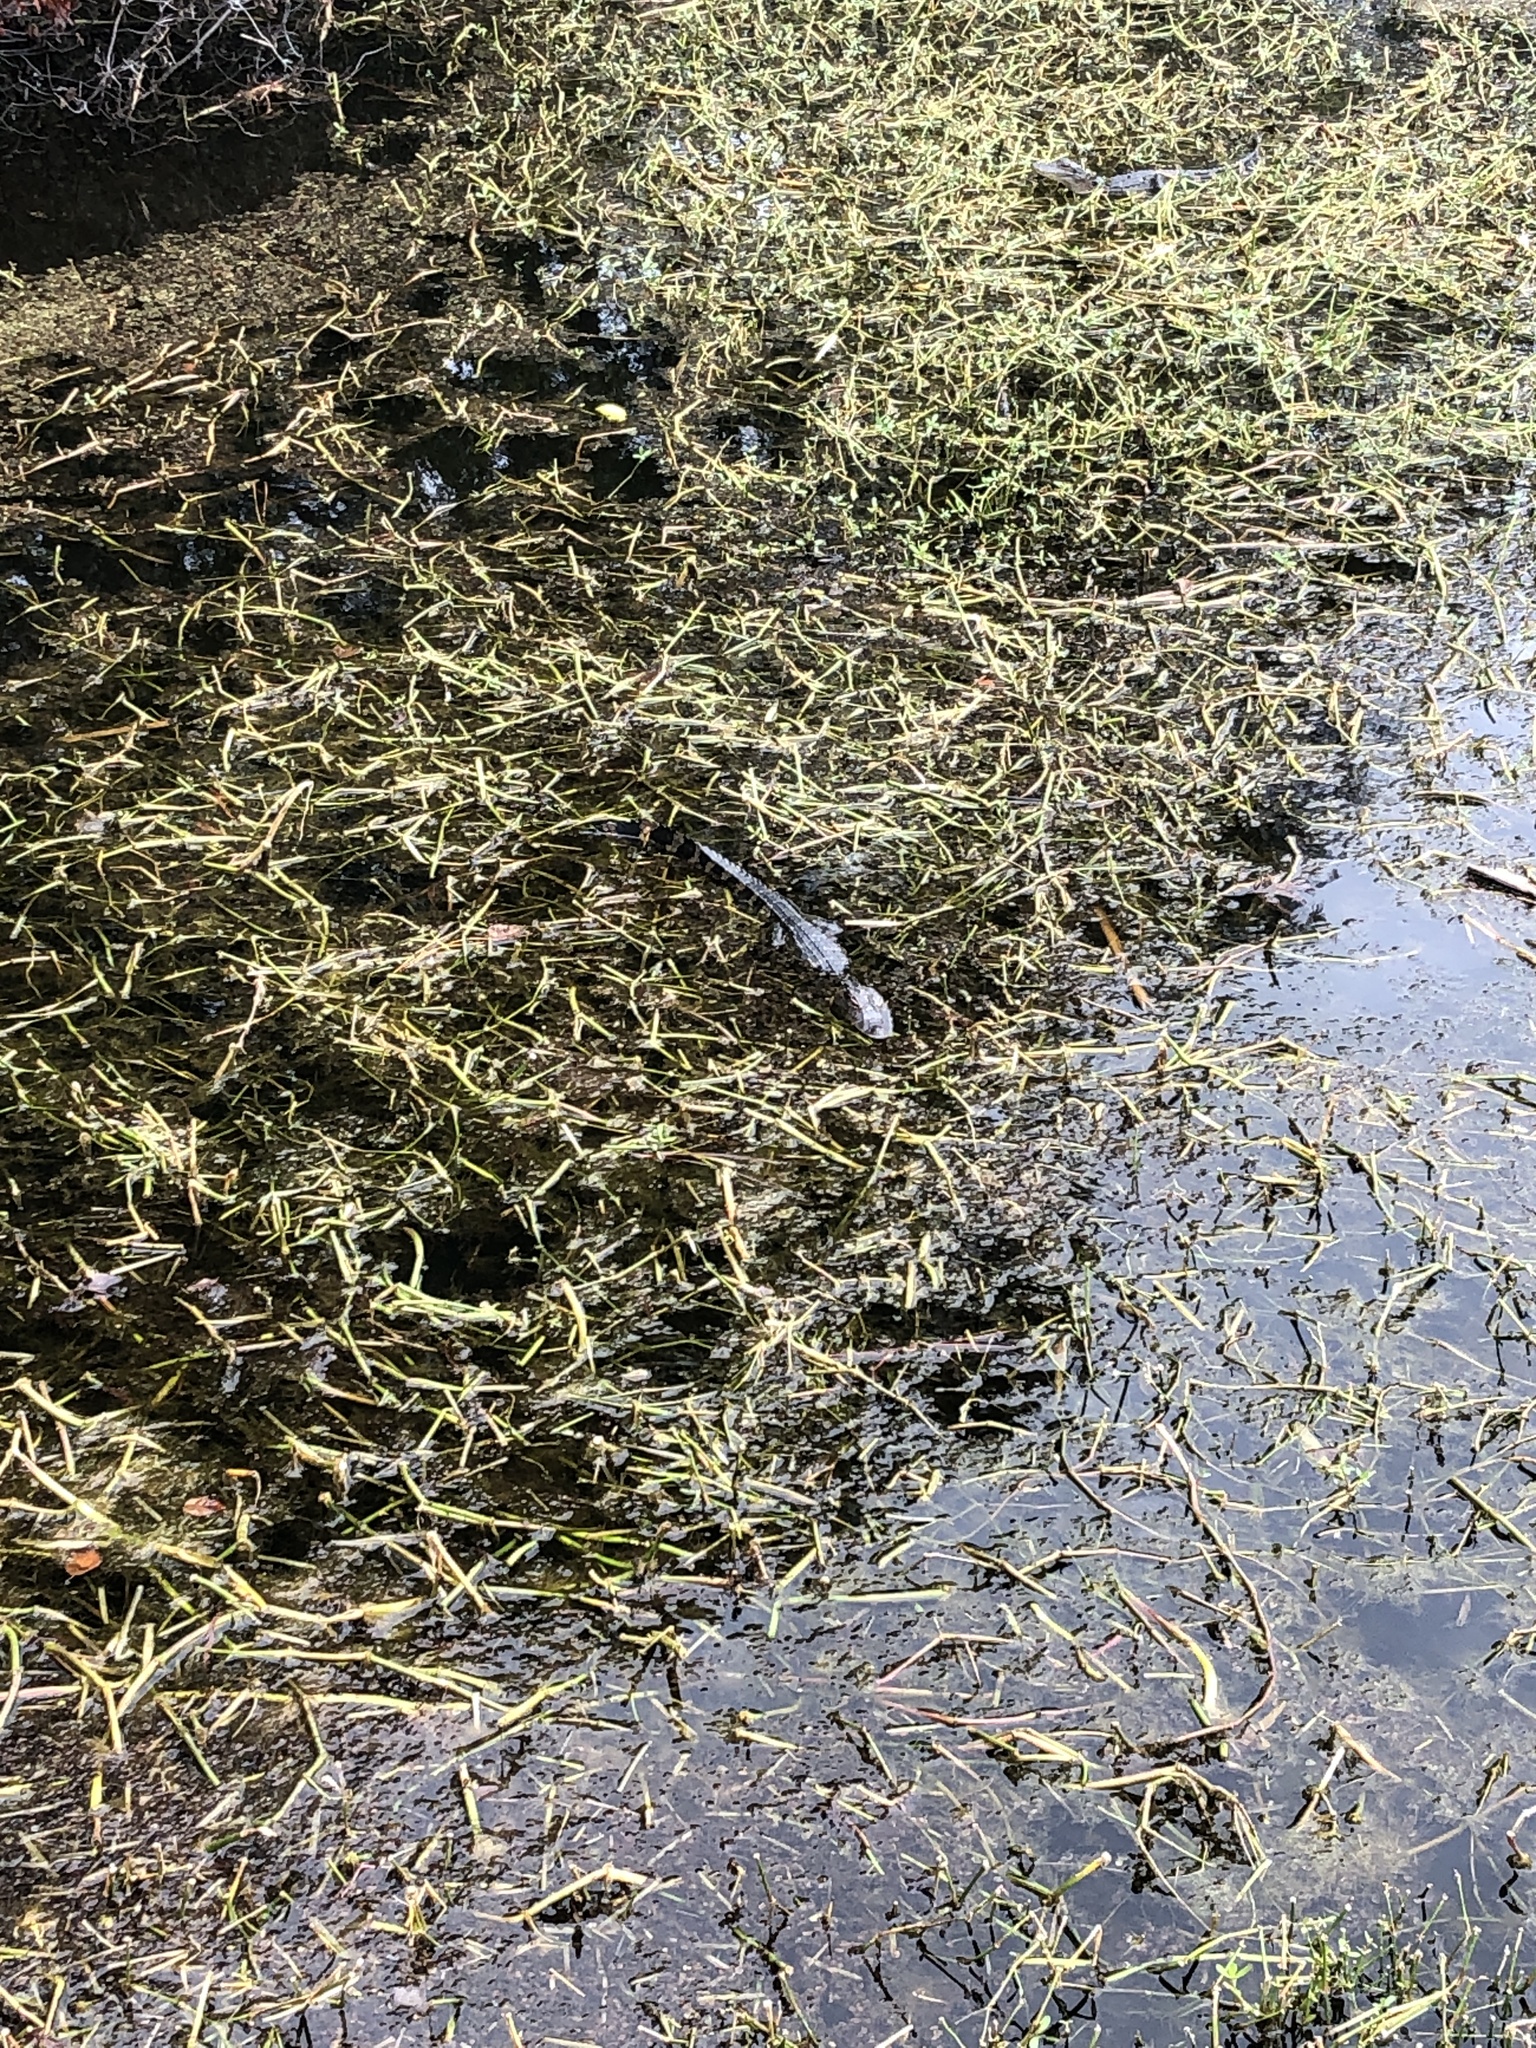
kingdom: Animalia
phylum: Chordata
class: Crocodylia
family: Alligatoridae
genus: Alligator
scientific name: Alligator mississippiensis
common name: American alligator
